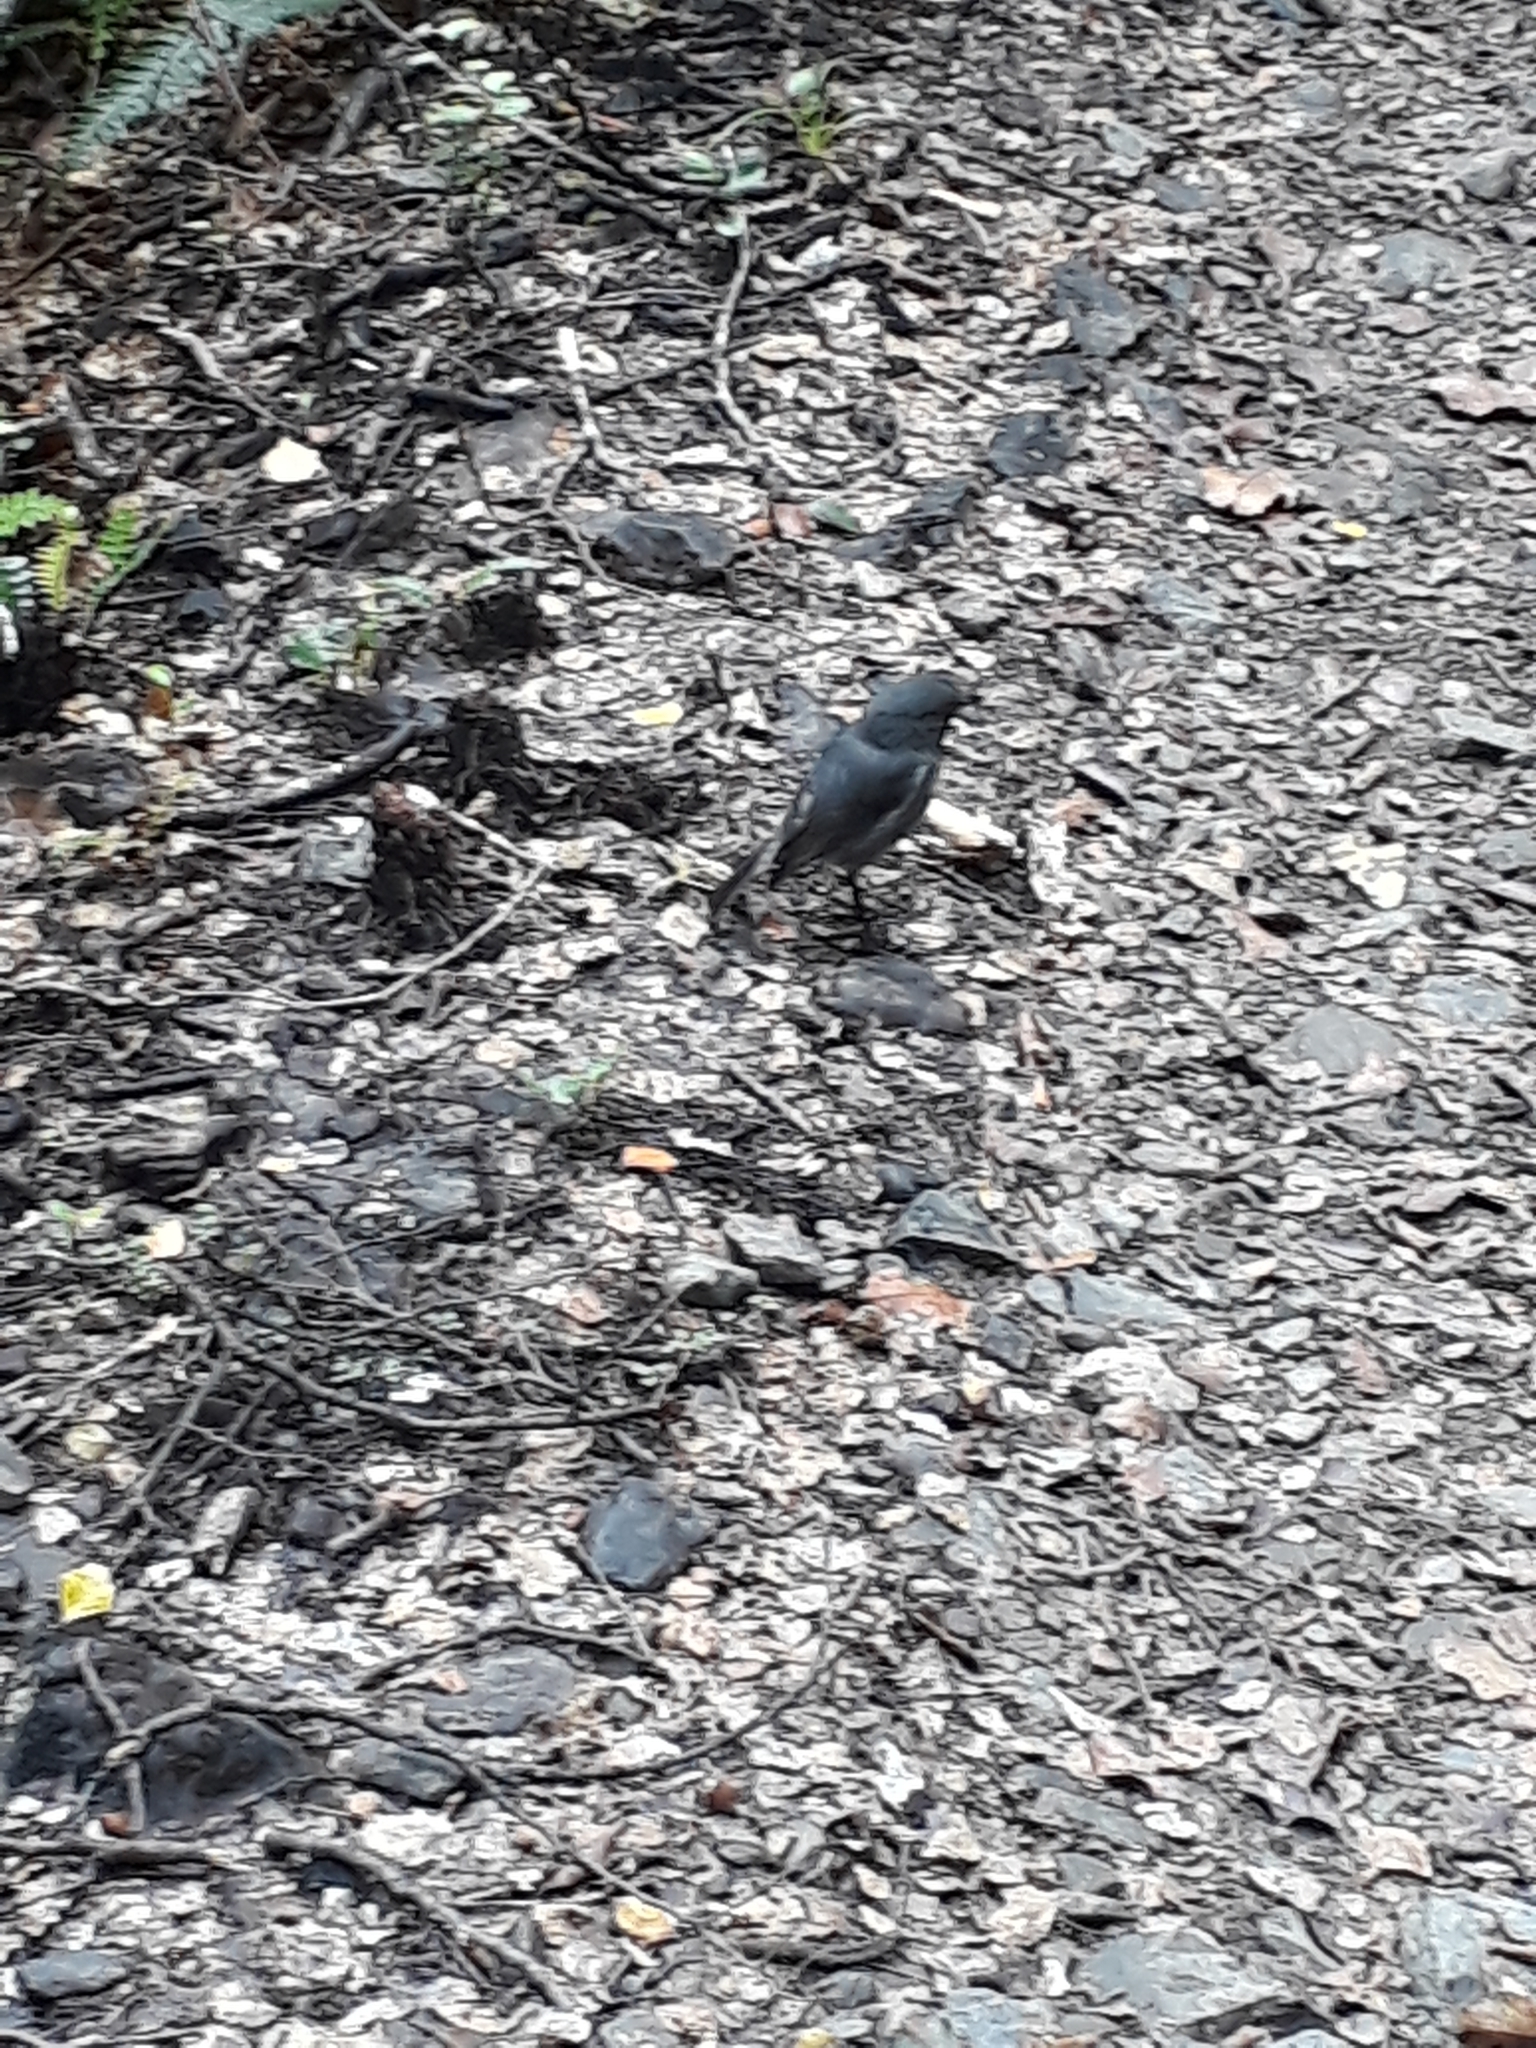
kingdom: Animalia
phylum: Chordata
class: Aves
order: Passeriformes
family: Petroicidae
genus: Petroica
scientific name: Petroica australis
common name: New zealand robin
